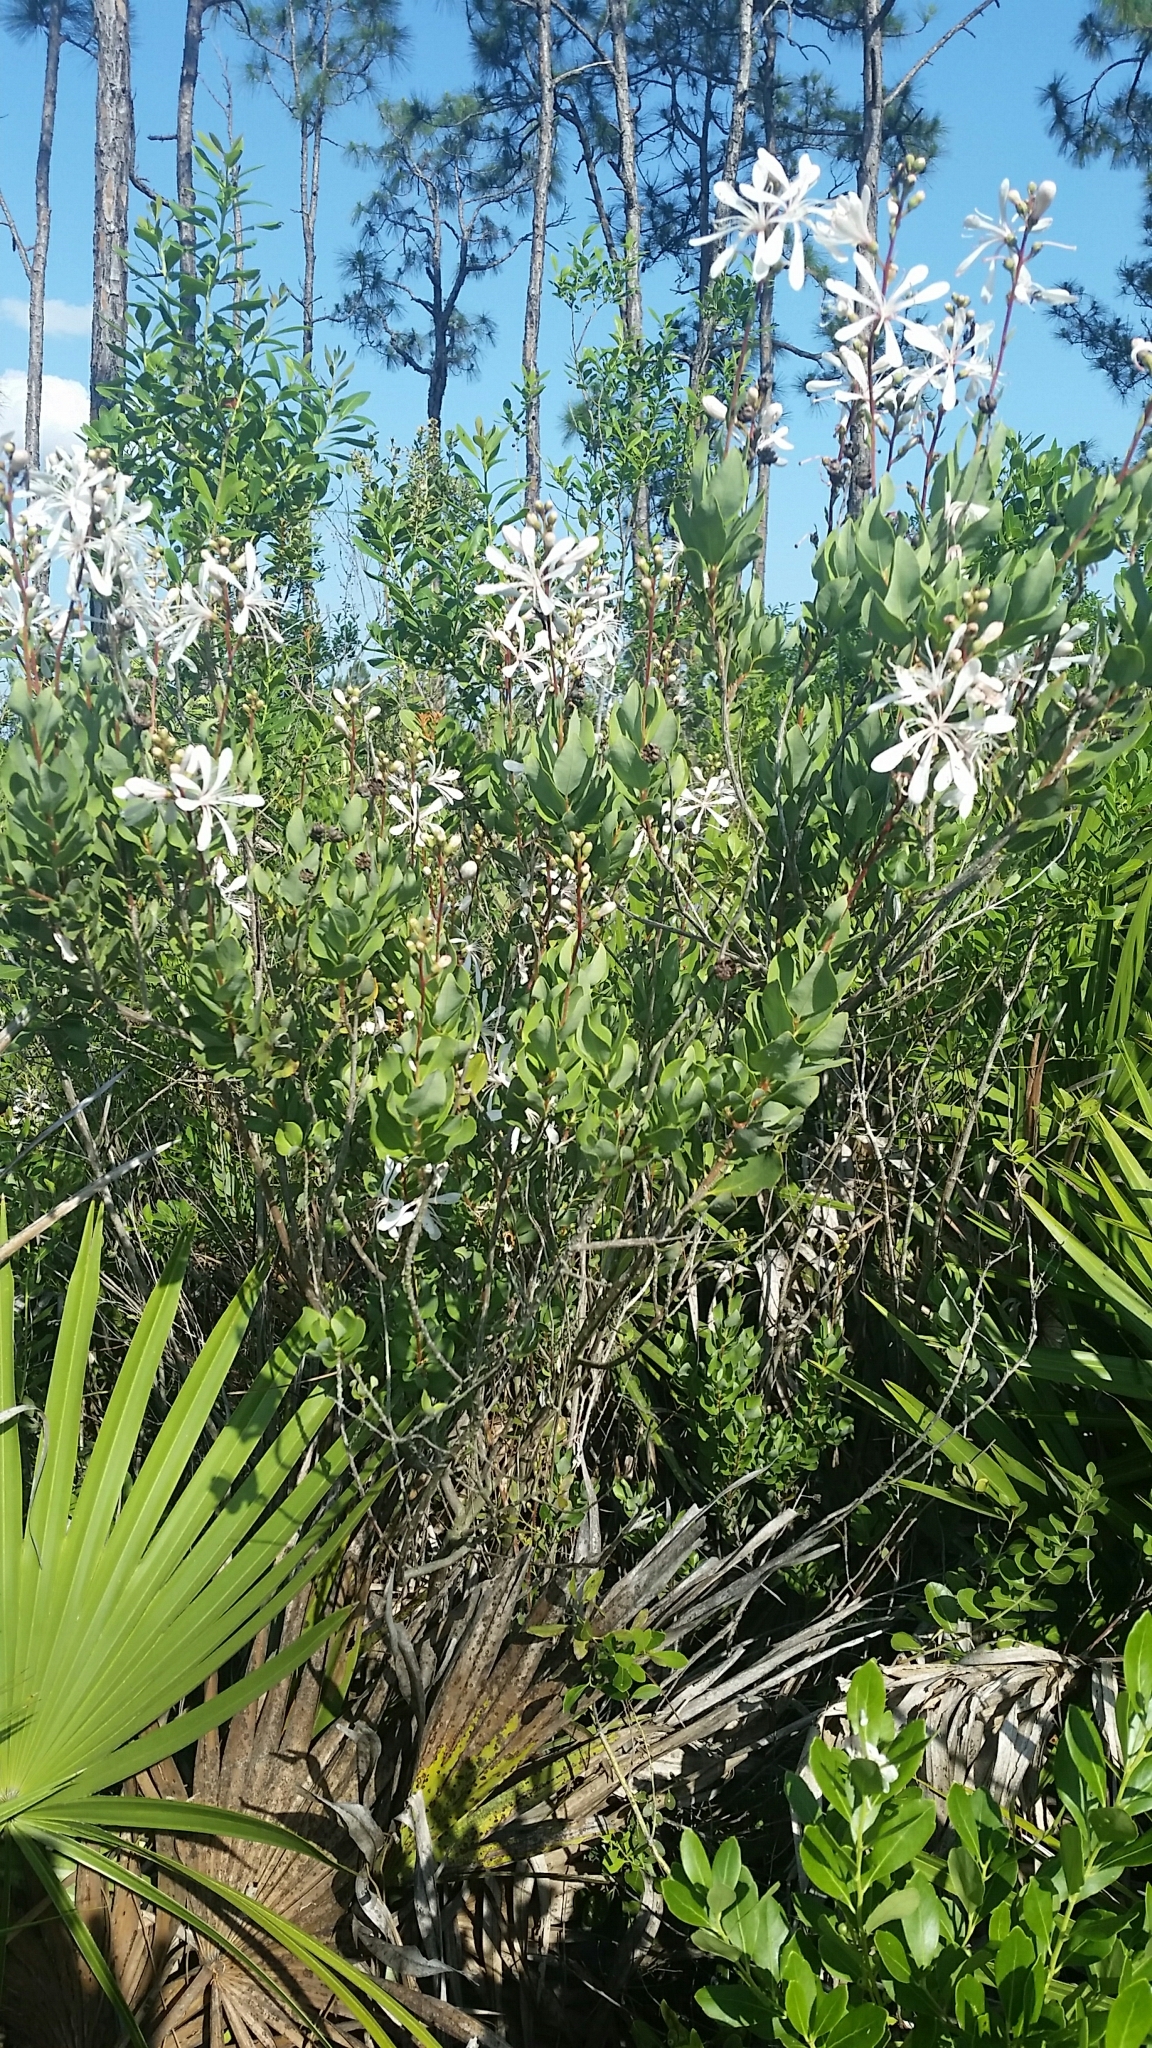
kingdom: Plantae
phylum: Tracheophyta
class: Magnoliopsida
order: Ericales
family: Ericaceae
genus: Bejaria
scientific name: Bejaria racemosa
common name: Tarflower
